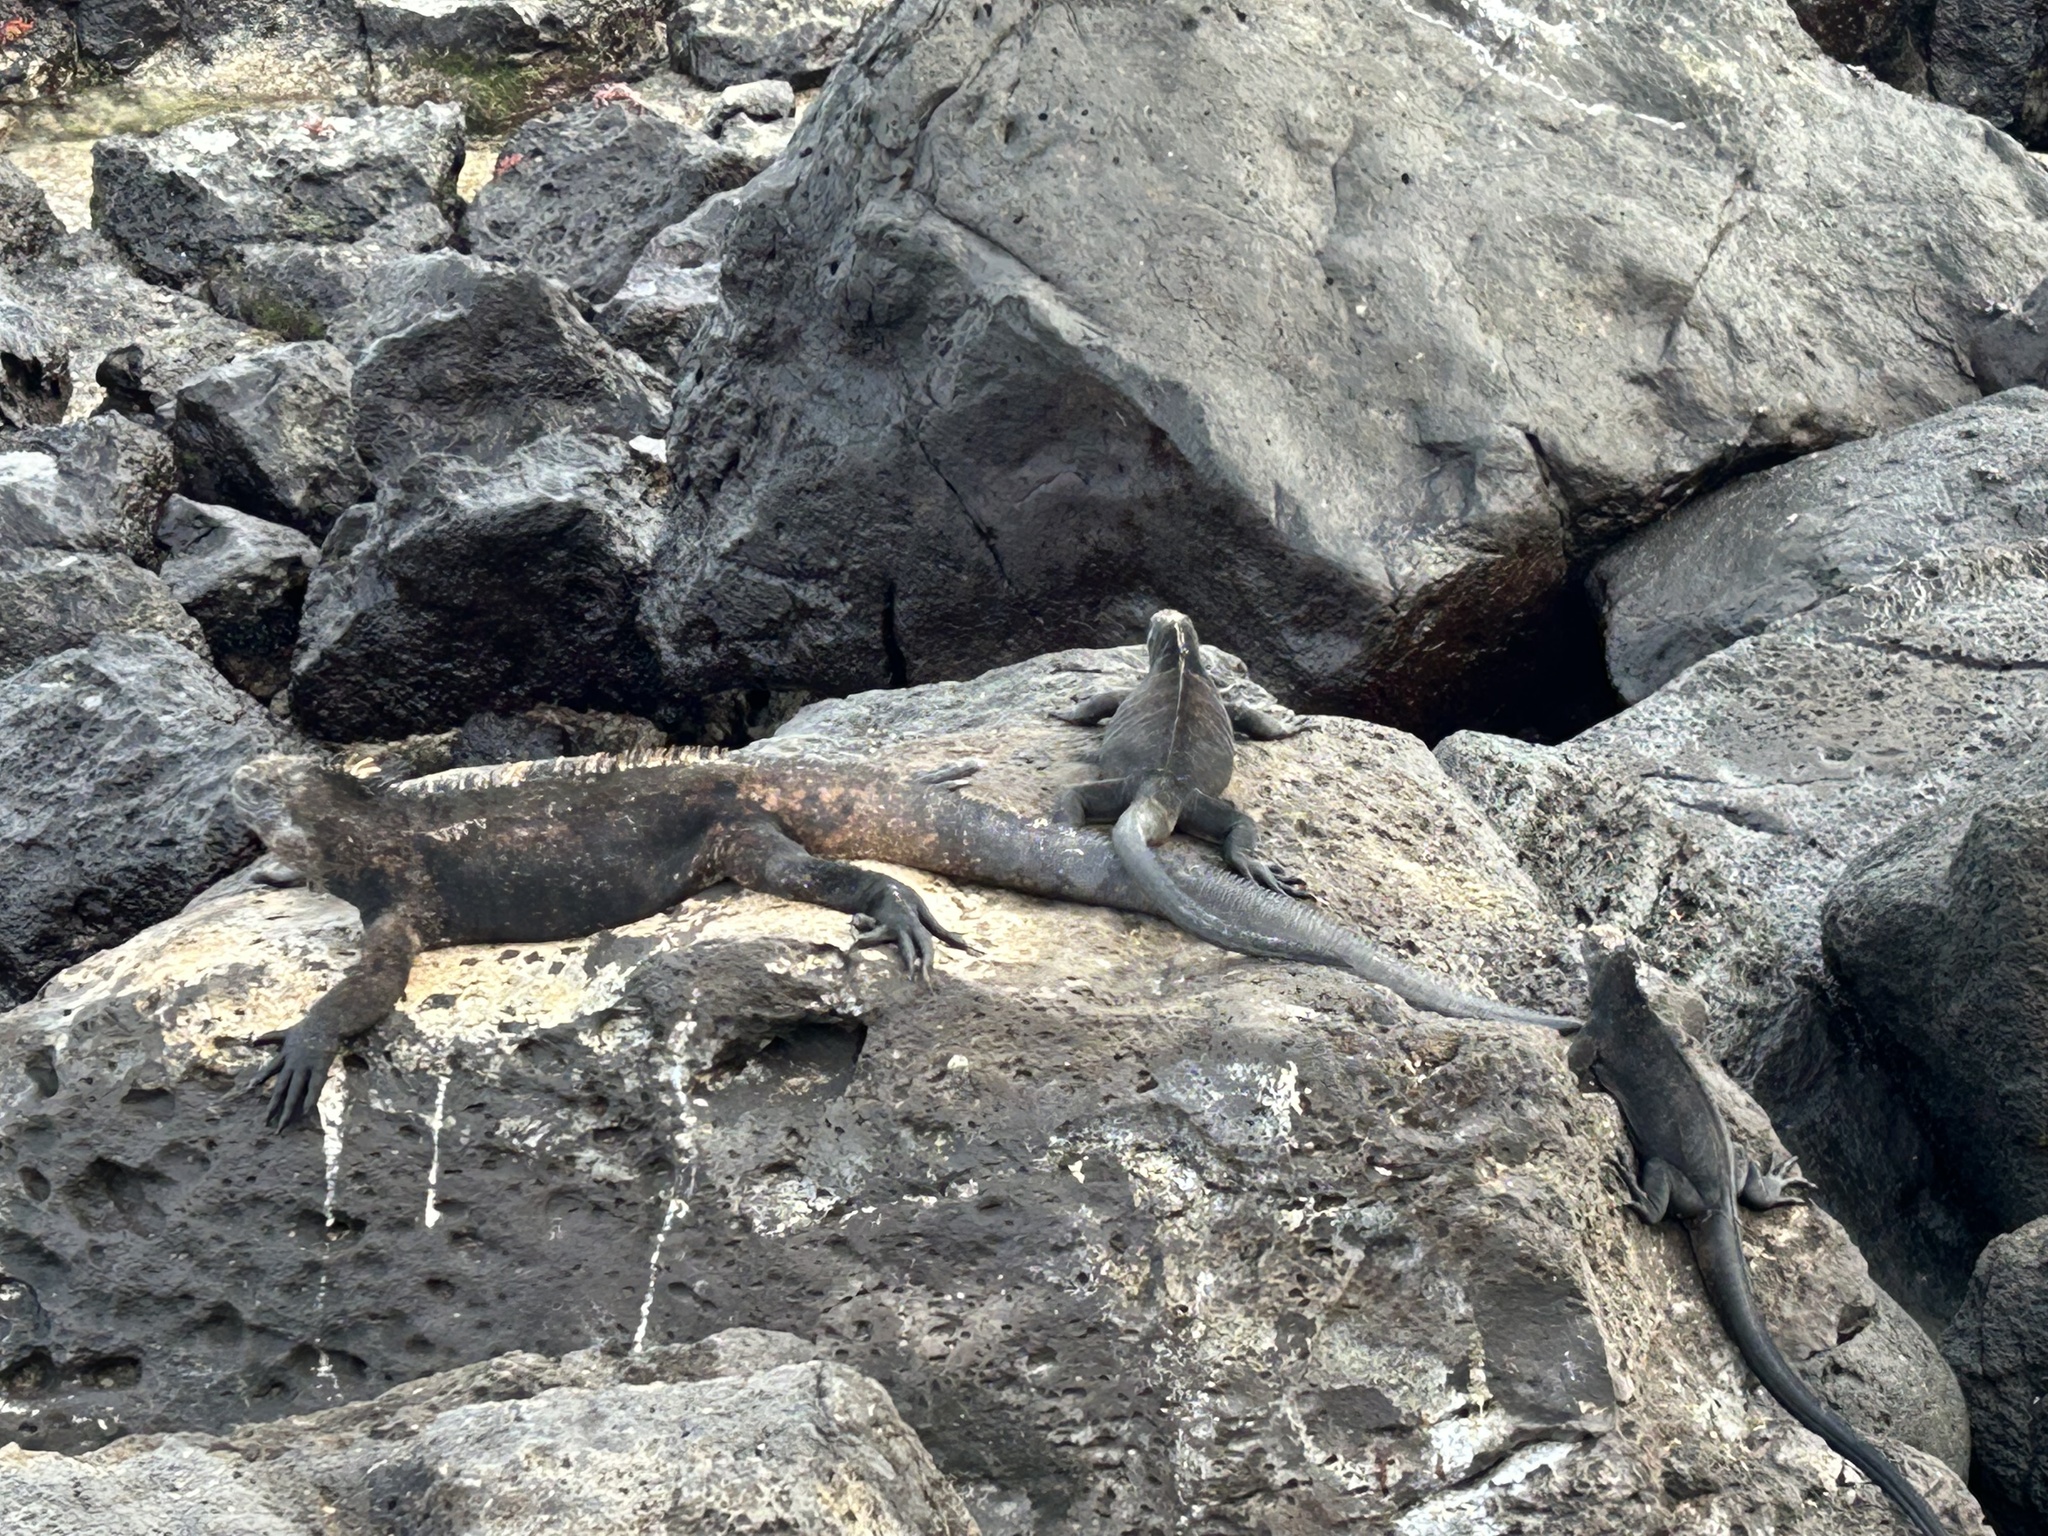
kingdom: Animalia
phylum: Chordata
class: Squamata
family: Iguanidae
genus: Amblyrhynchus
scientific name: Amblyrhynchus cristatus
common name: Marine iguana
